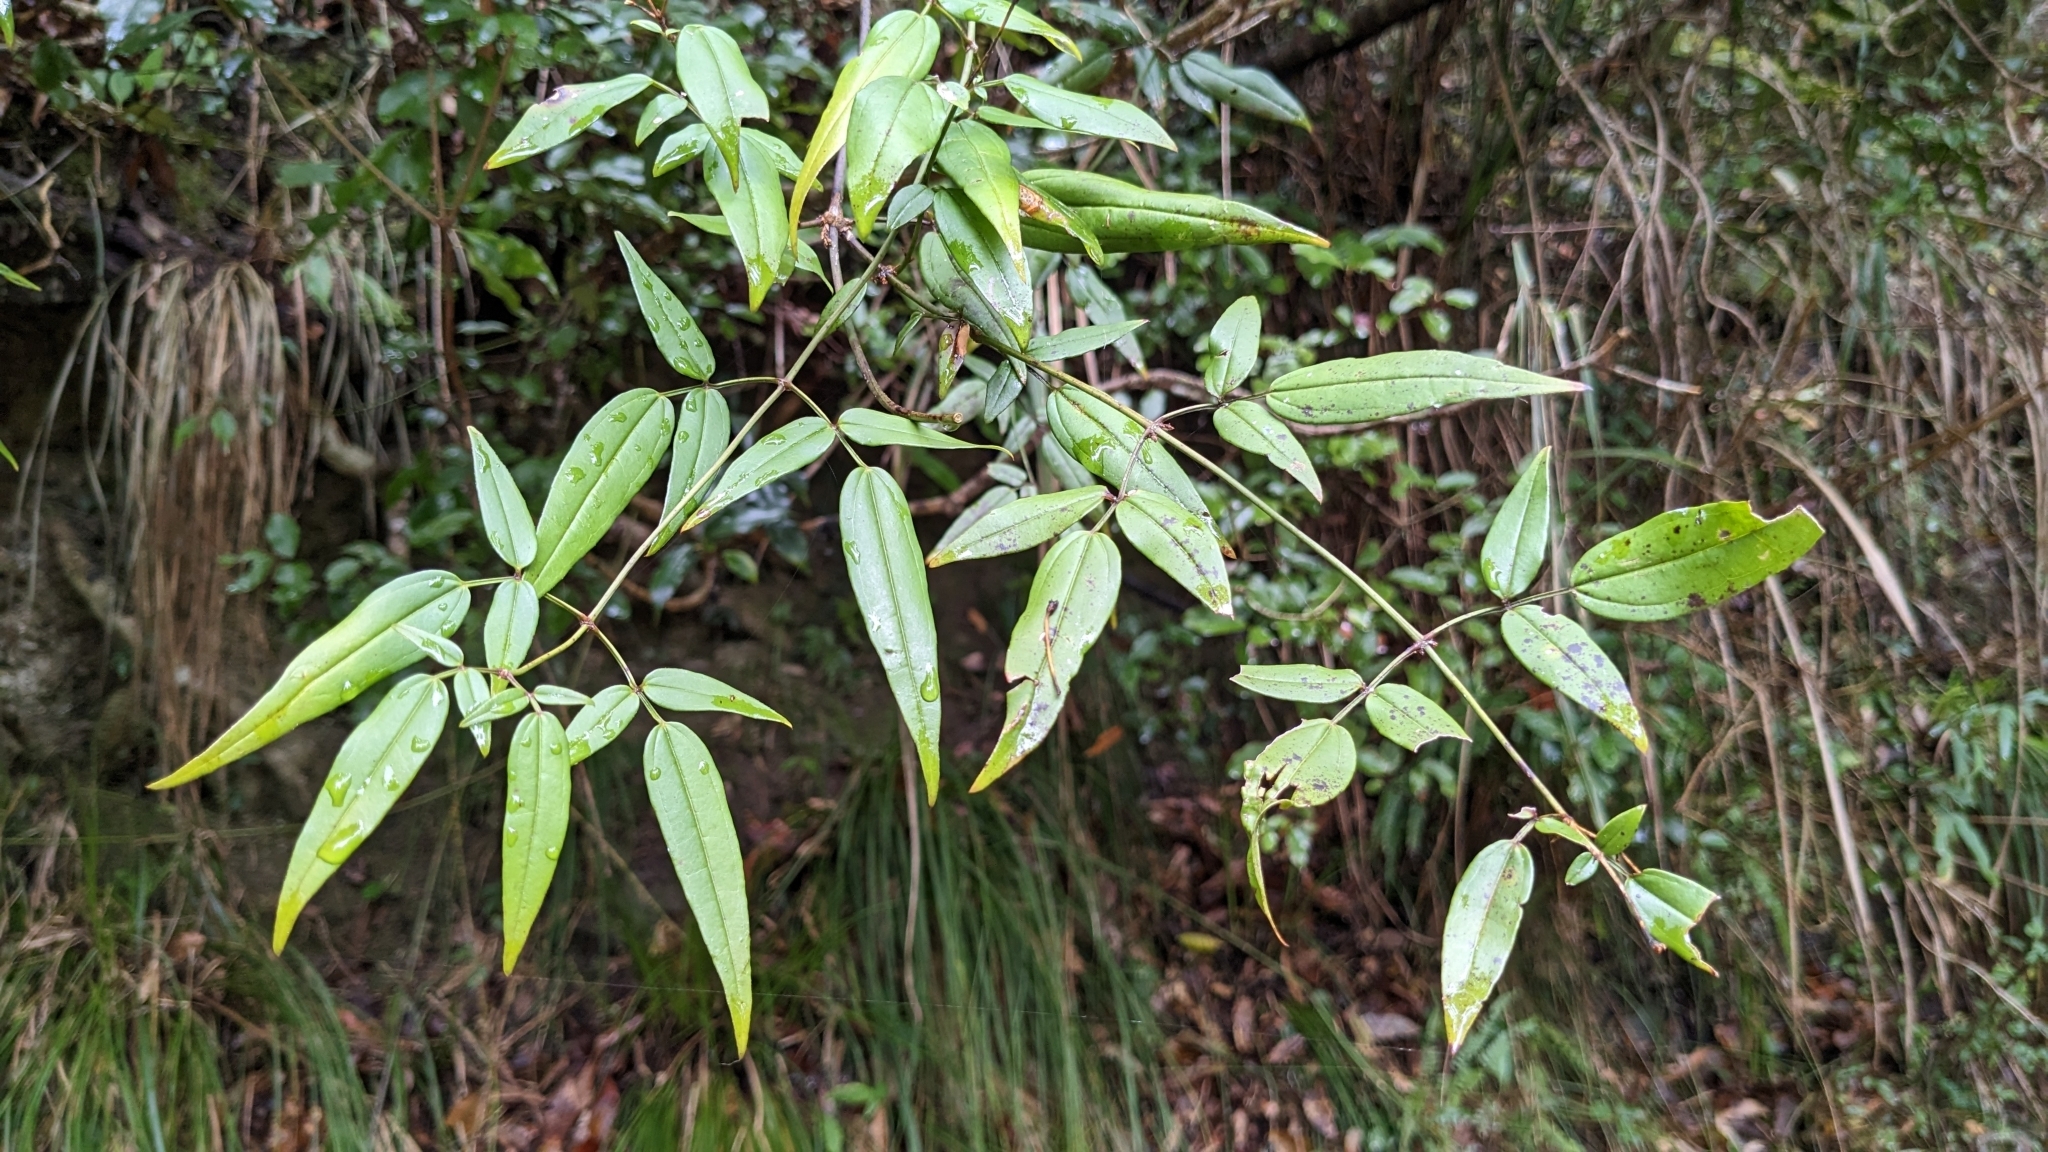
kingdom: Plantae
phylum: Tracheophyta
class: Magnoliopsida
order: Lamiales
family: Oleaceae
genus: Jasminum
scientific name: Jasminum urophyllum
